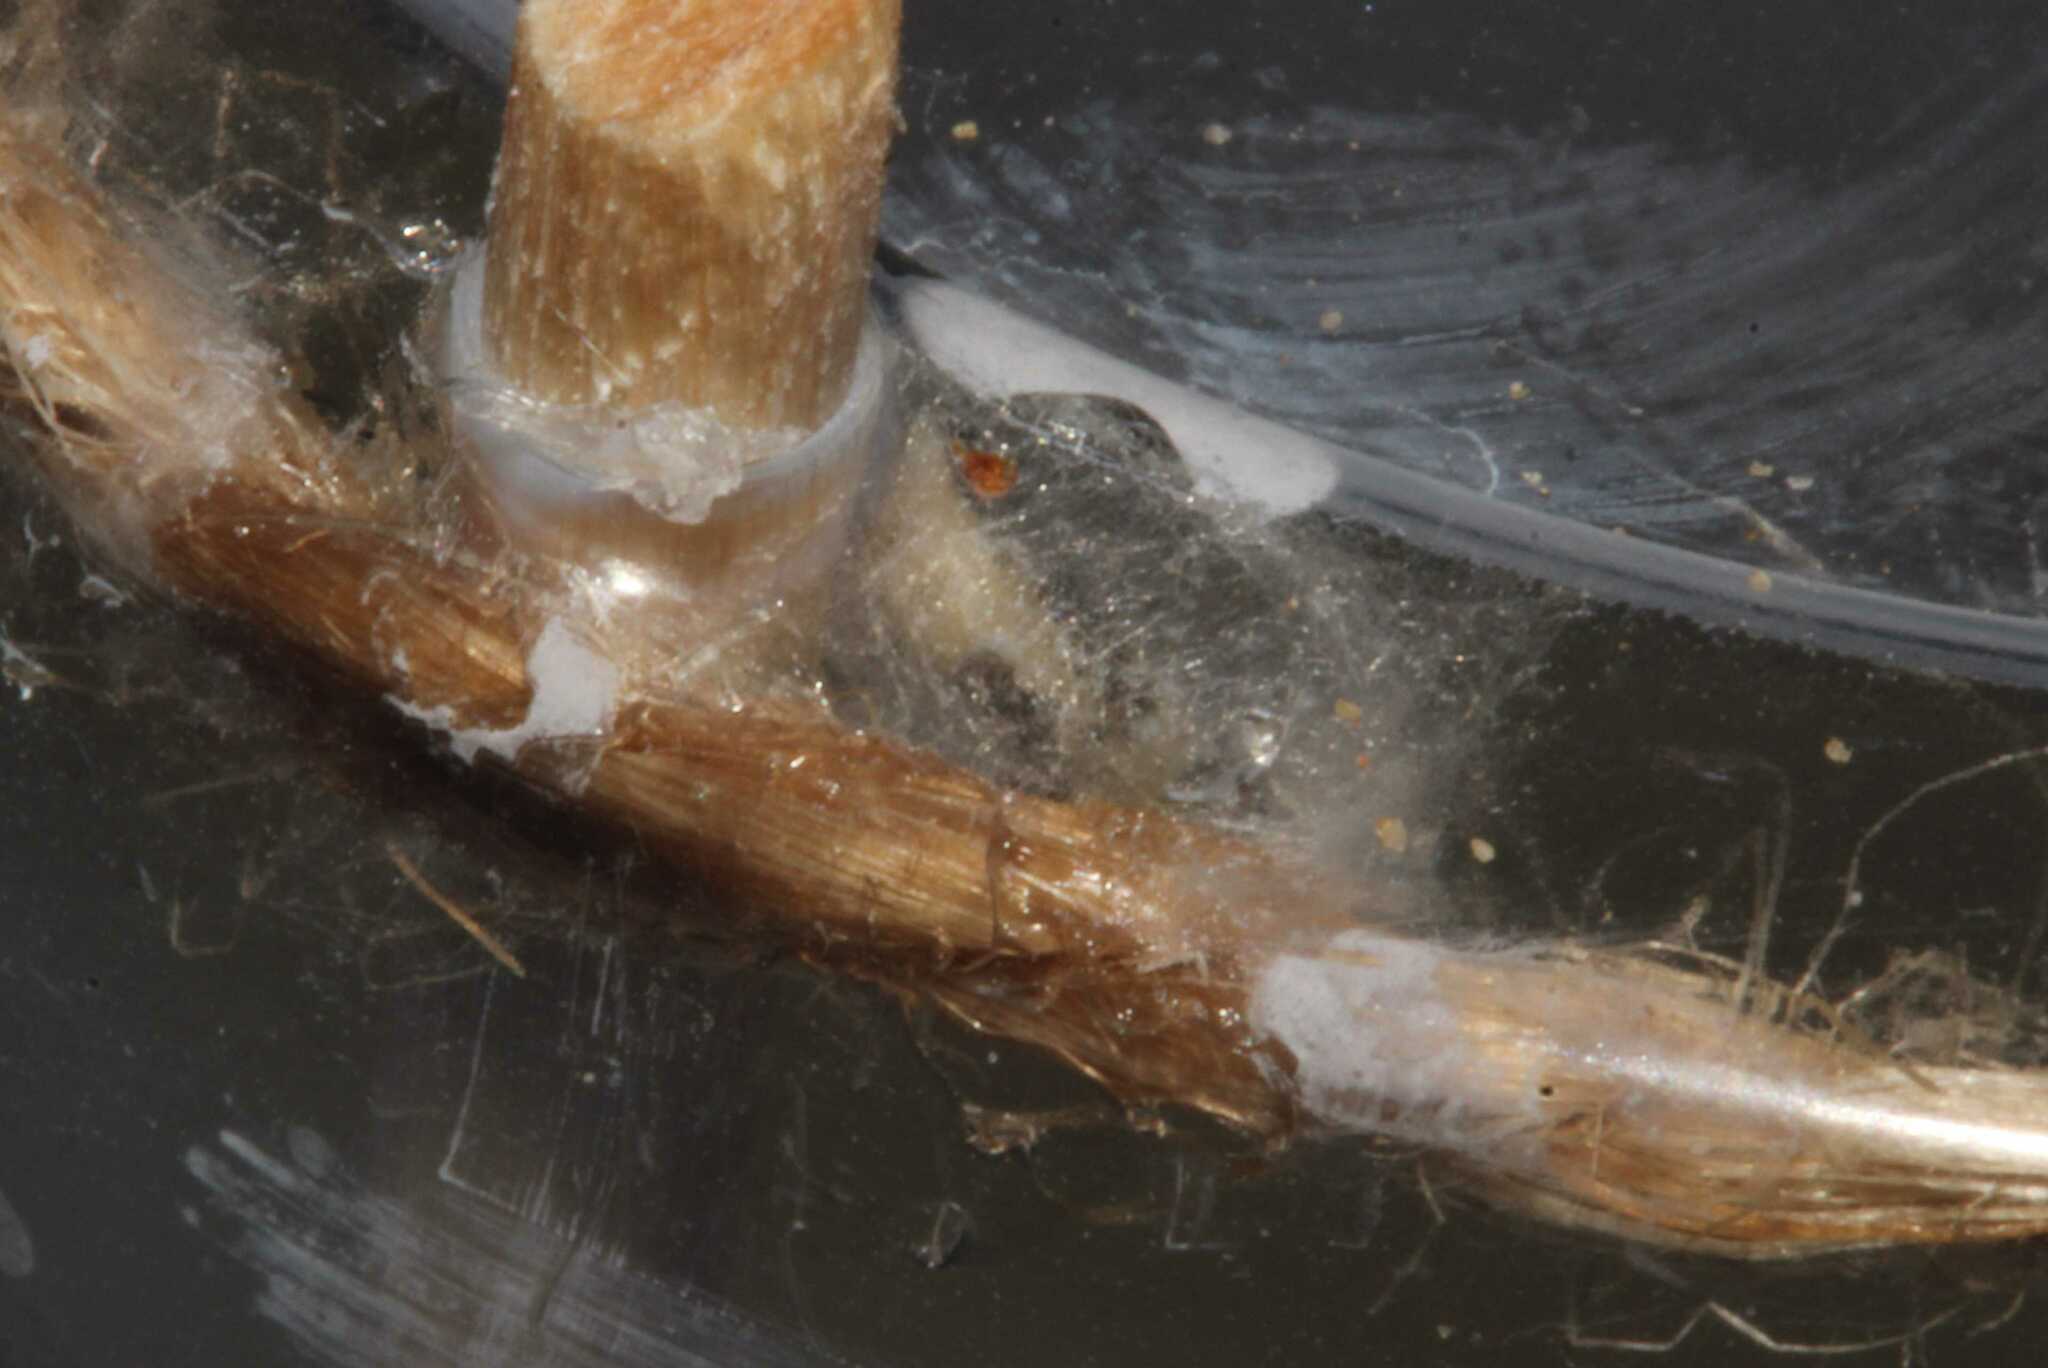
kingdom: Animalia
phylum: Arthropoda
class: Insecta
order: Hymenoptera
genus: Ephialtina
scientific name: Ephialtina
